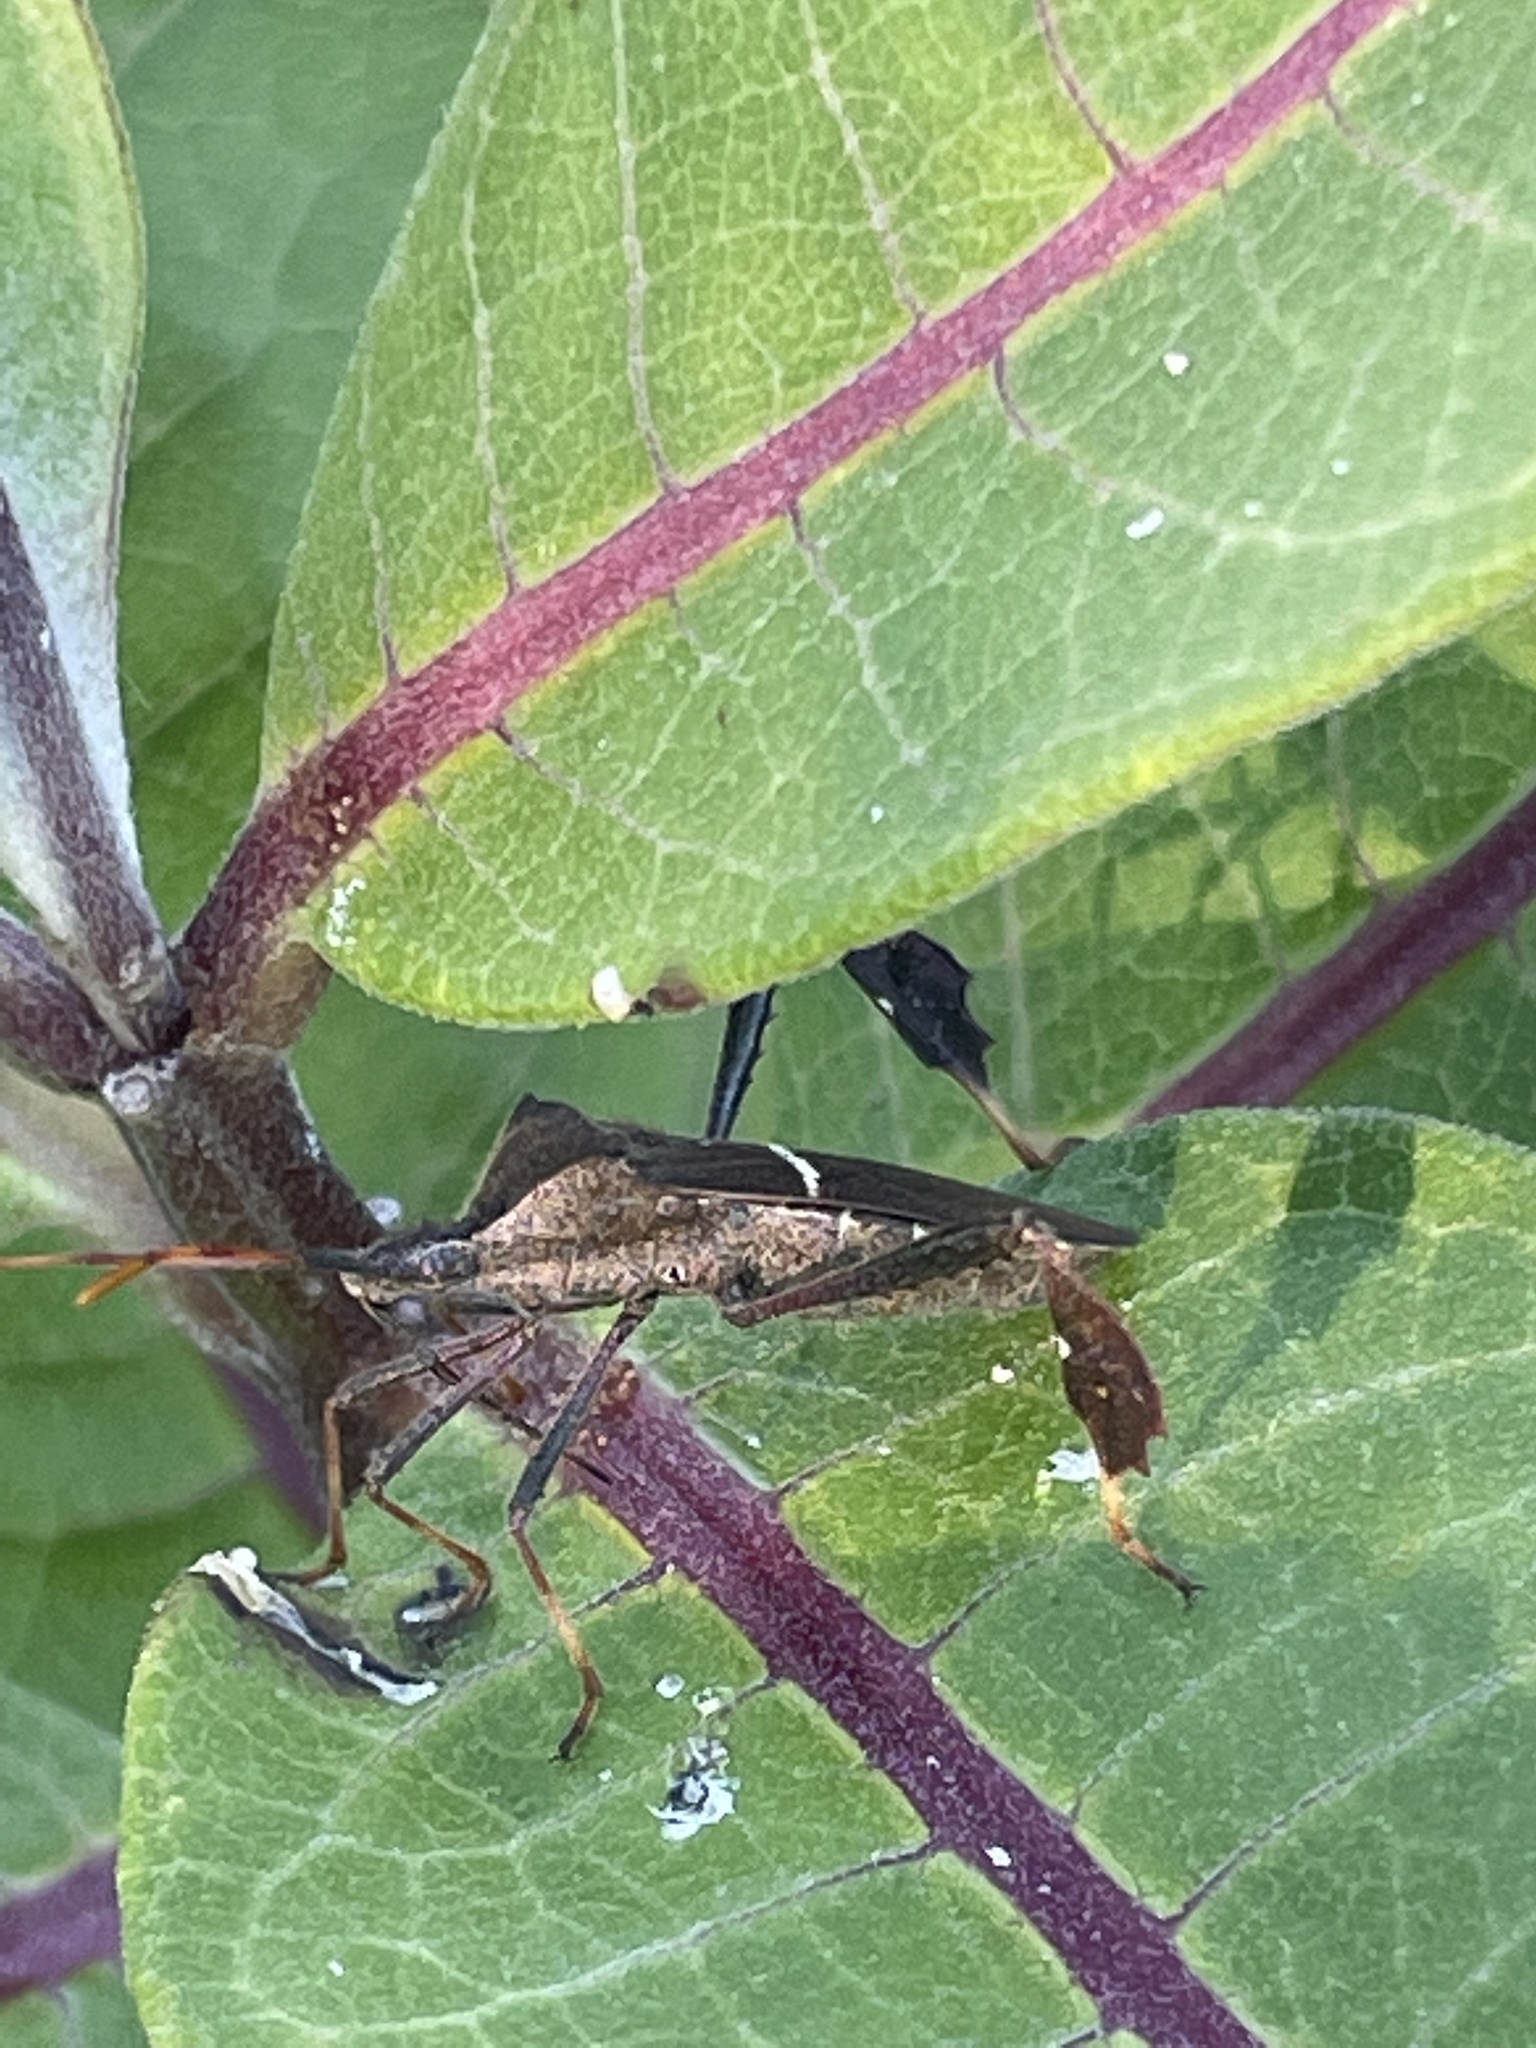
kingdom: Animalia
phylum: Arthropoda
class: Insecta
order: Hemiptera
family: Coreidae
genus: Leptoglossus
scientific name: Leptoglossus phyllopus
